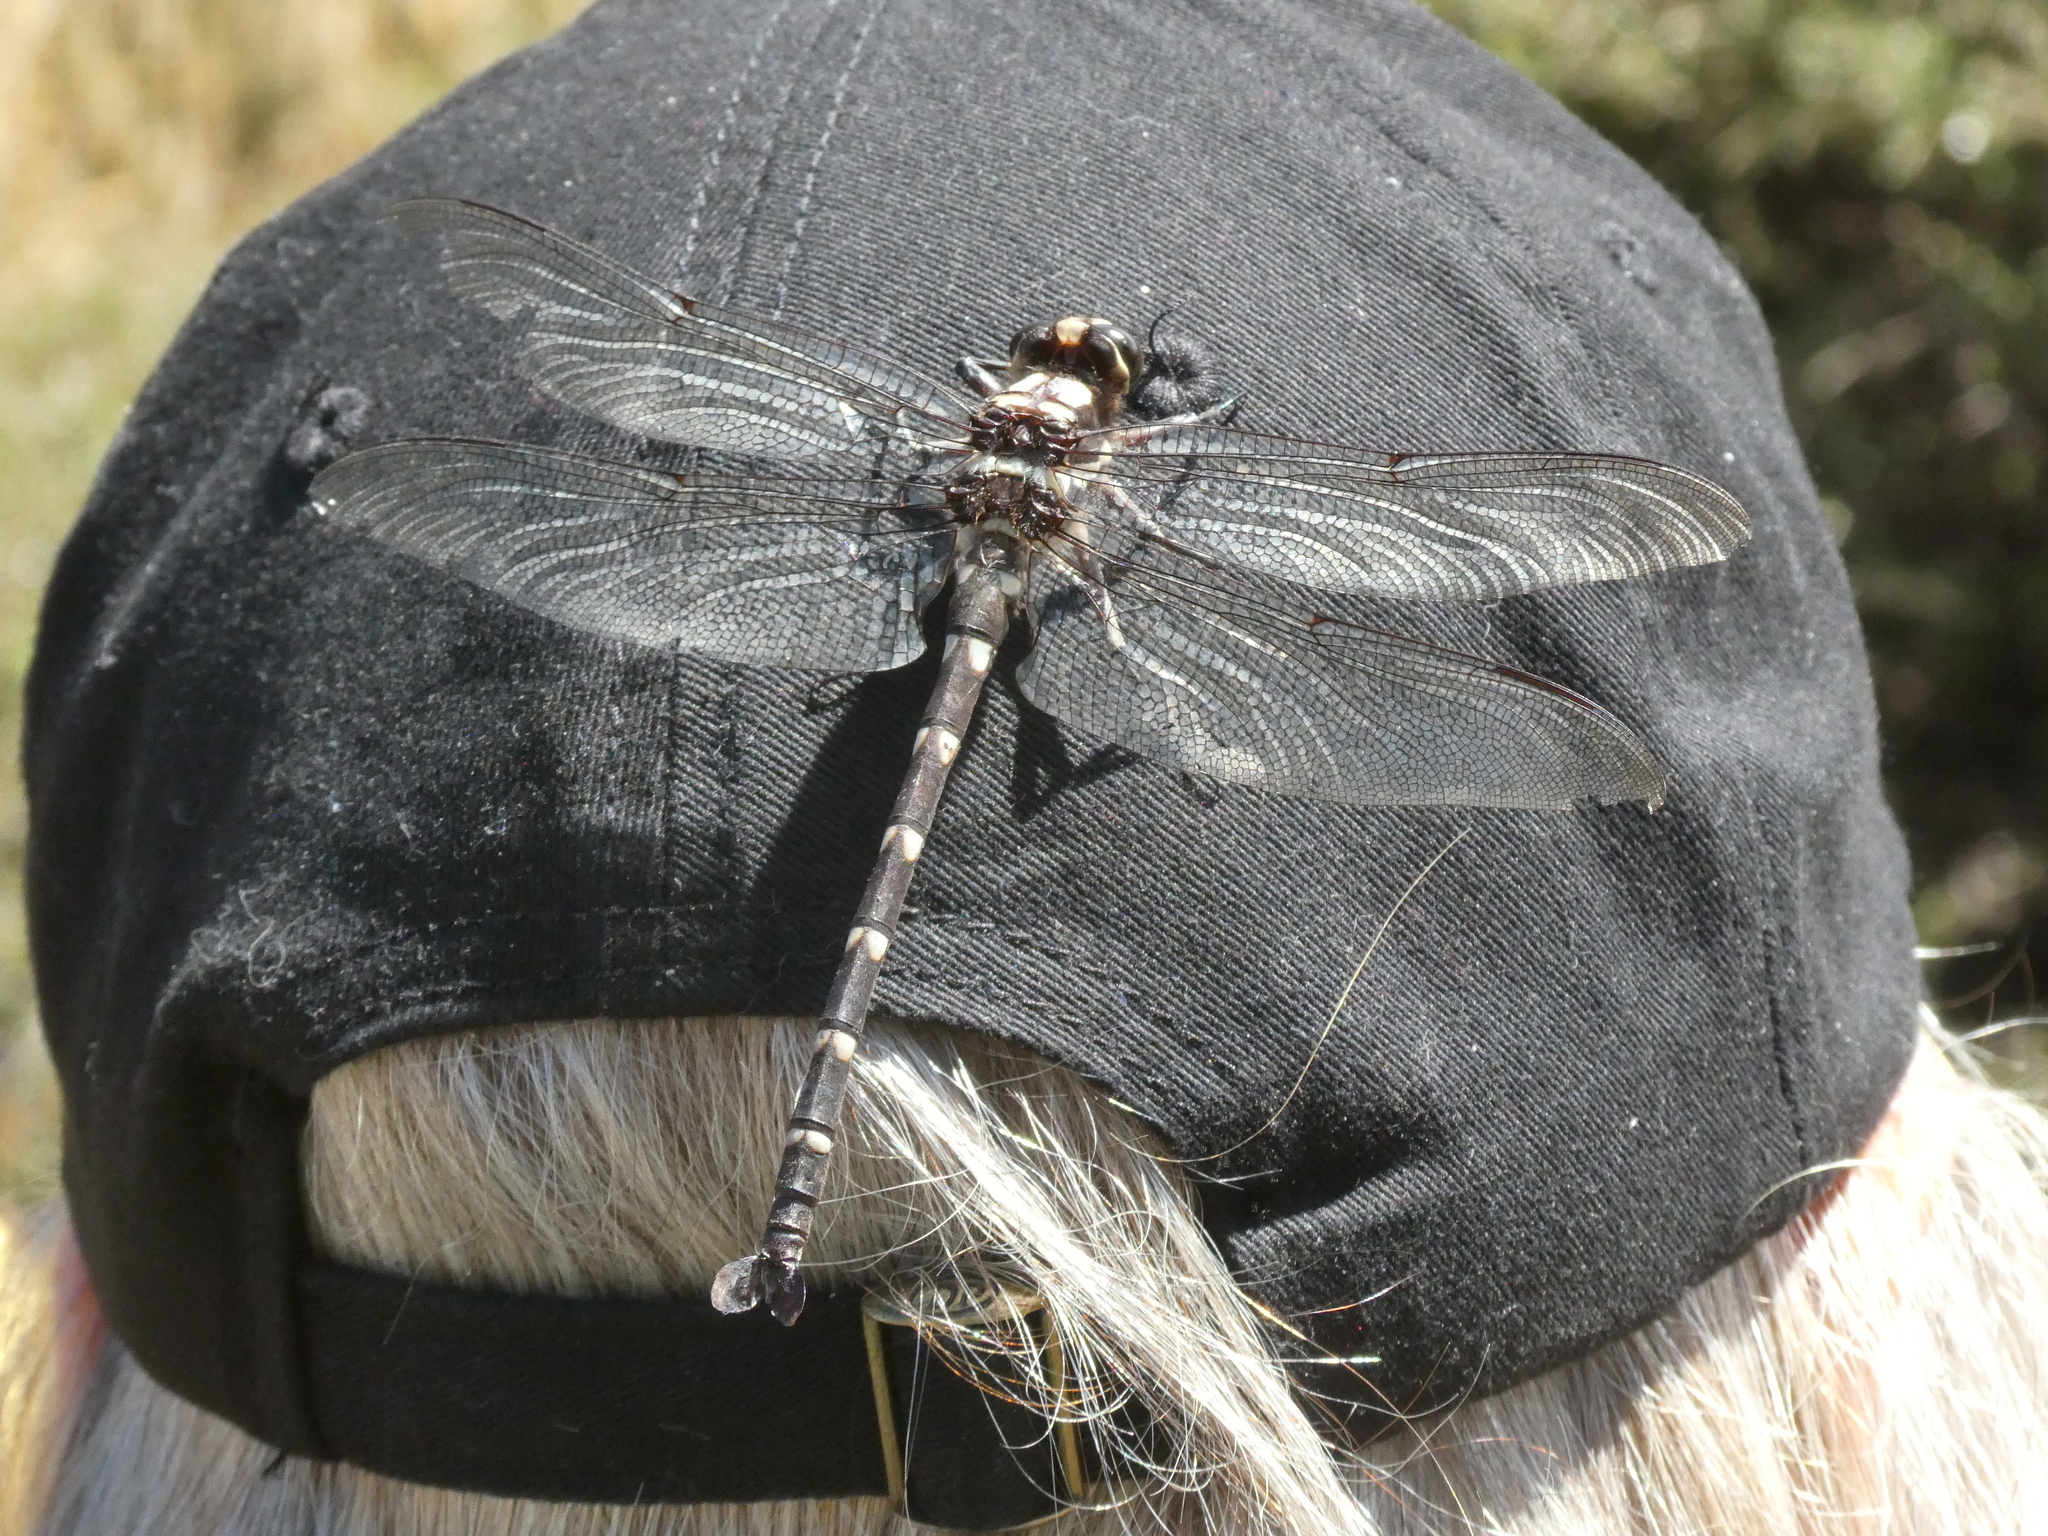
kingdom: Animalia
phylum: Arthropoda
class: Insecta
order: Odonata
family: Petaluridae
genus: Uropetala
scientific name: Uropetala carovei
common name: Bush giant dragonfly
